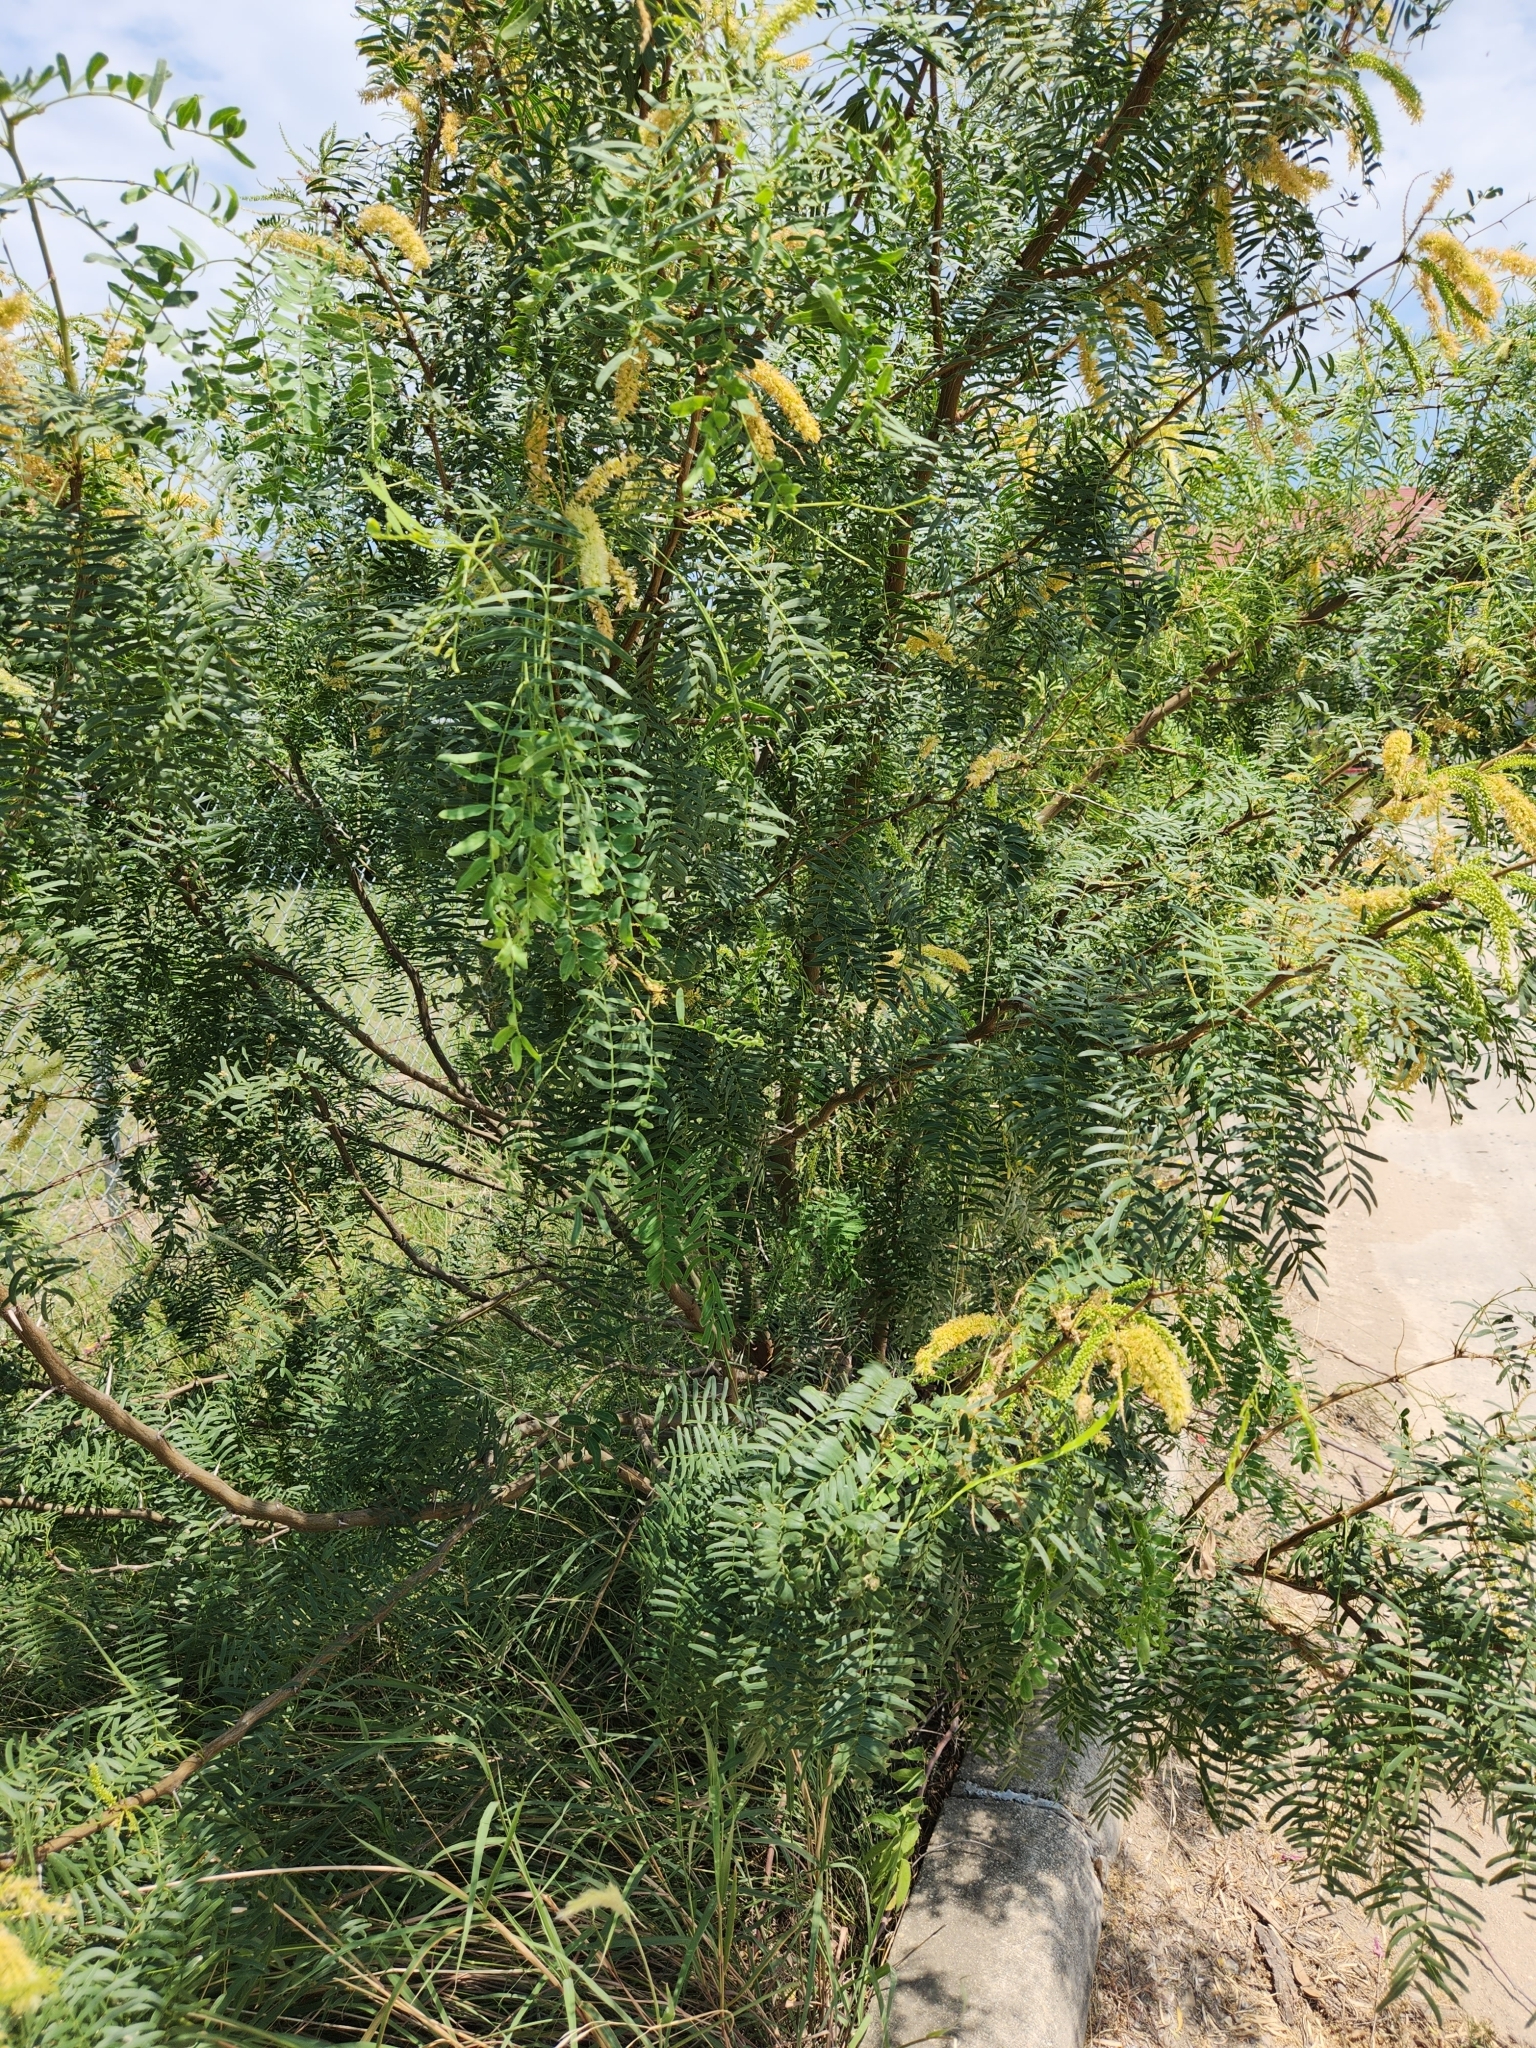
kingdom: Plantae
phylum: Tracheophyta
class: Magnoliopsida
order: Fabales
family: Fabaceae
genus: Prosopis
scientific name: Prosopis glandulosa
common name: Honey mesquite
